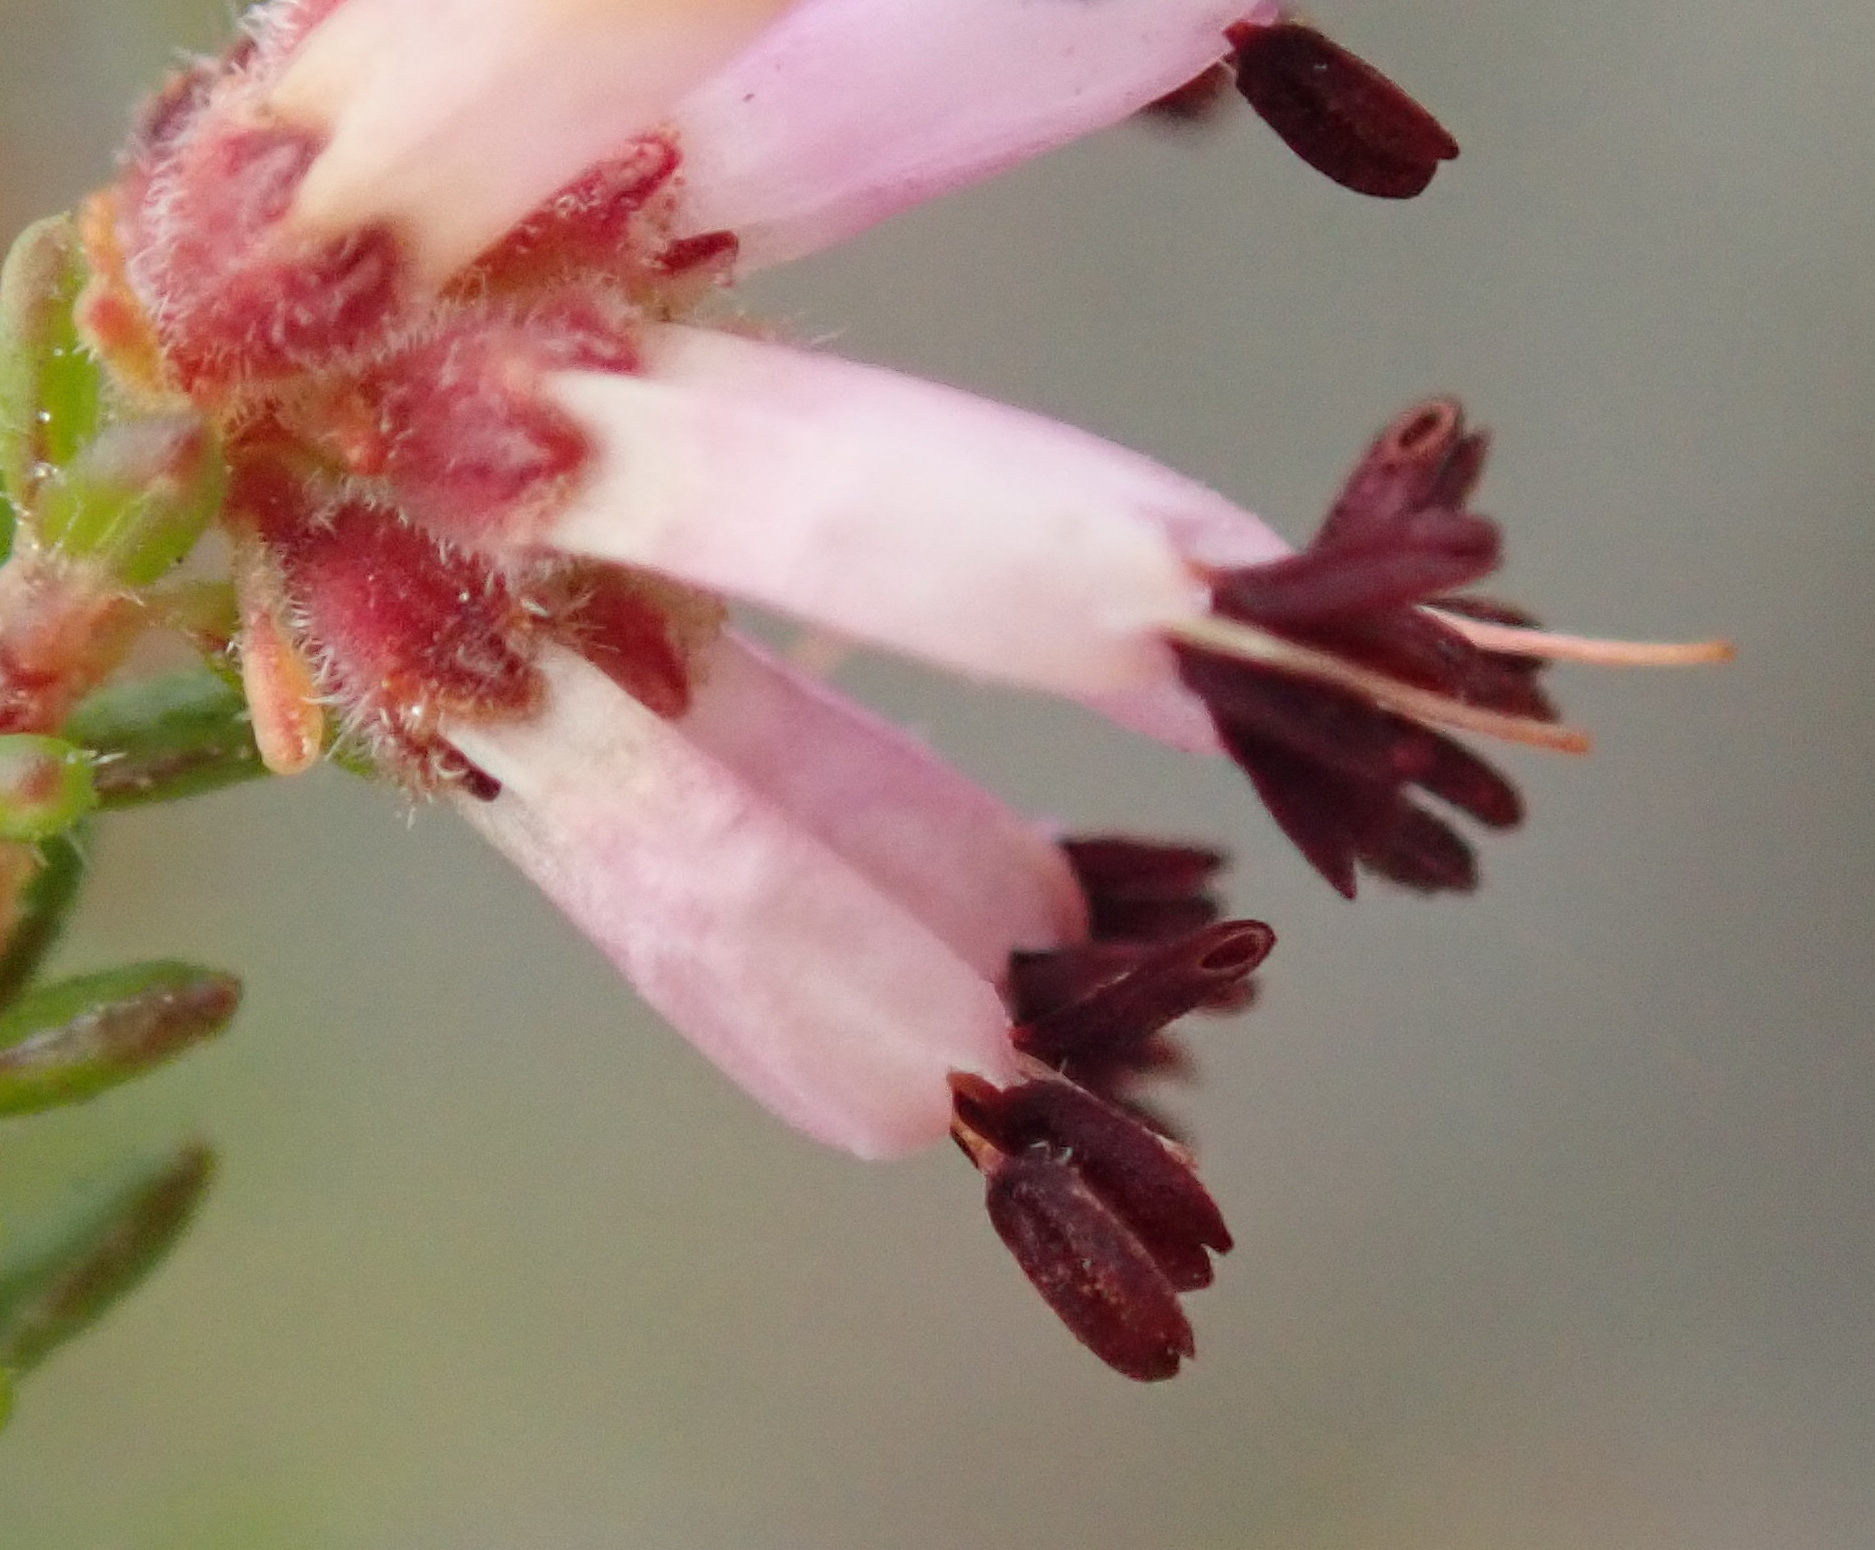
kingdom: Plantae
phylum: Tracheophyta
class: Magnoliopsida
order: Ericales
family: Ericaceae
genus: Erica
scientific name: Erica radicans
